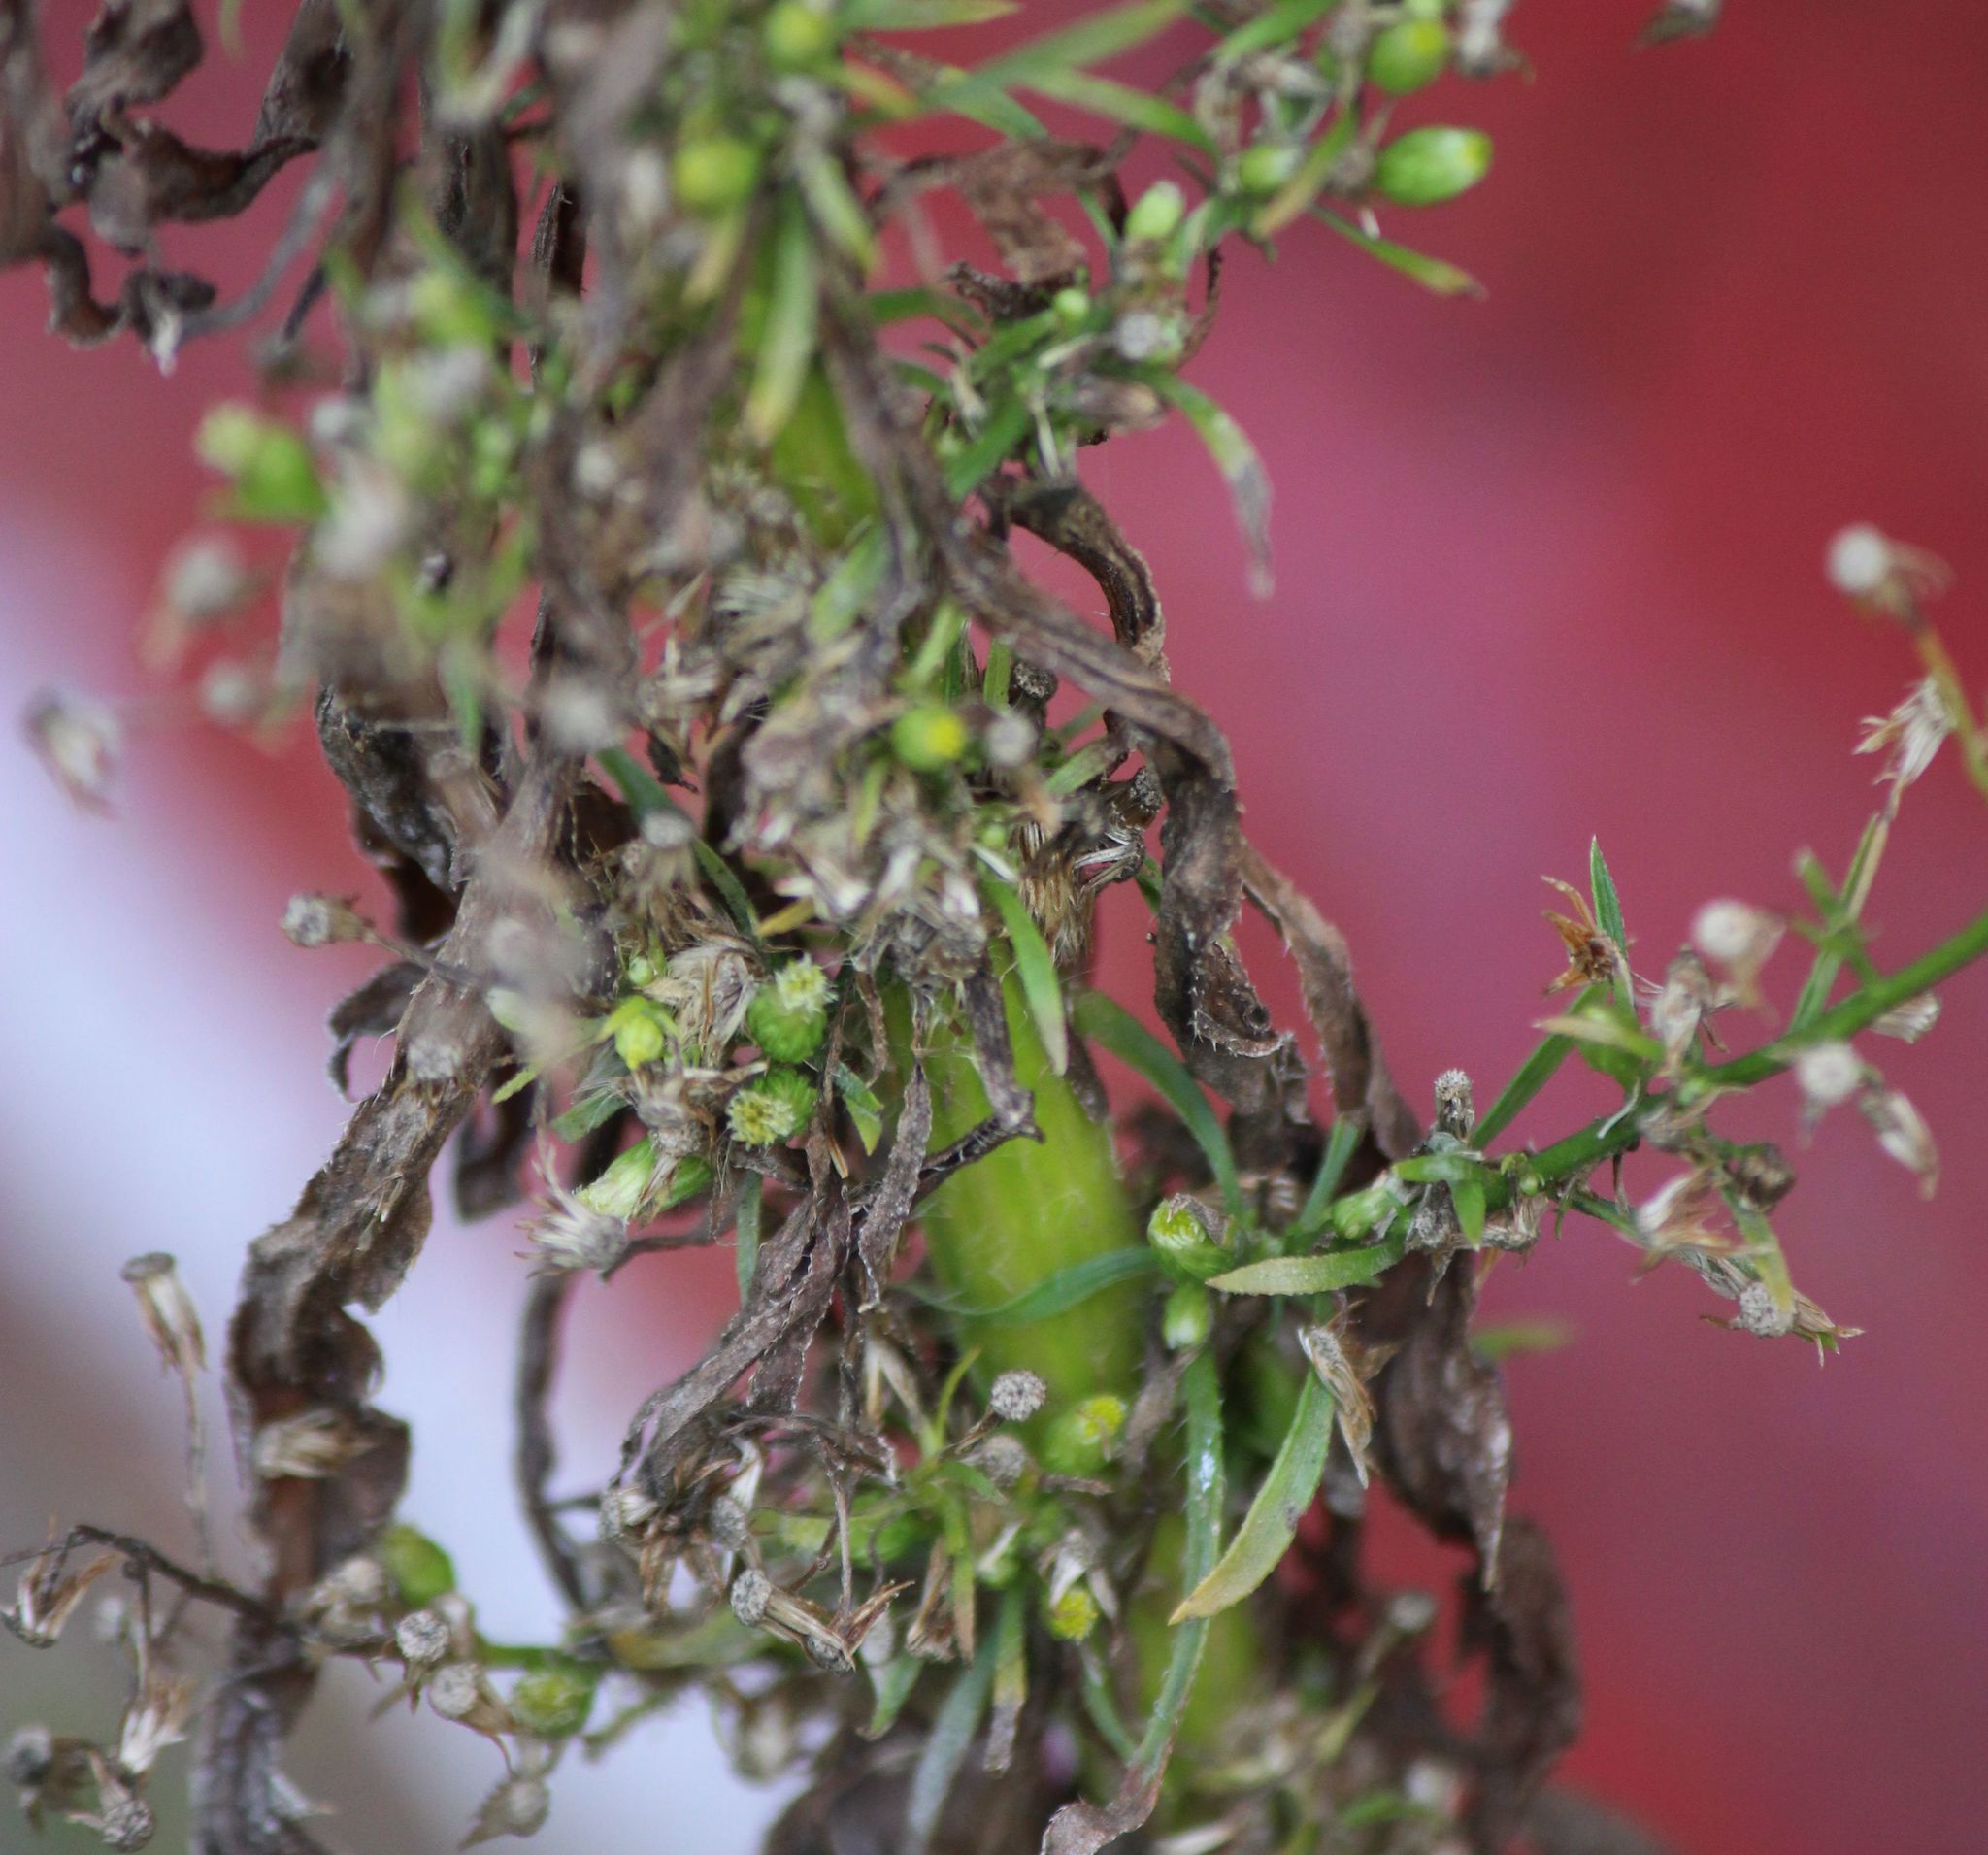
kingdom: Plantae
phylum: Tracheophyta
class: Magnoliopsida
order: Asterales
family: Asteraceae
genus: Erigeron
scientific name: Erigeron canadensis
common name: Canadian fleabane
